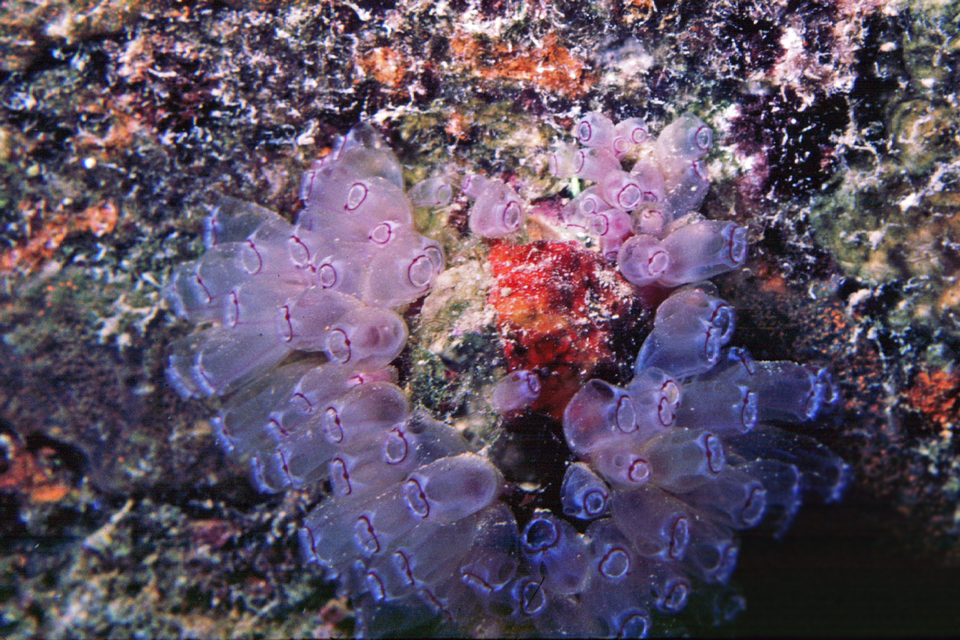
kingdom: Animalia
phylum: Chordata
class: Ascidiacea
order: Aplousobranchia
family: Clavelinidae
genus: Clavelina
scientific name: Clavelina picta
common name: Painted tunicate
